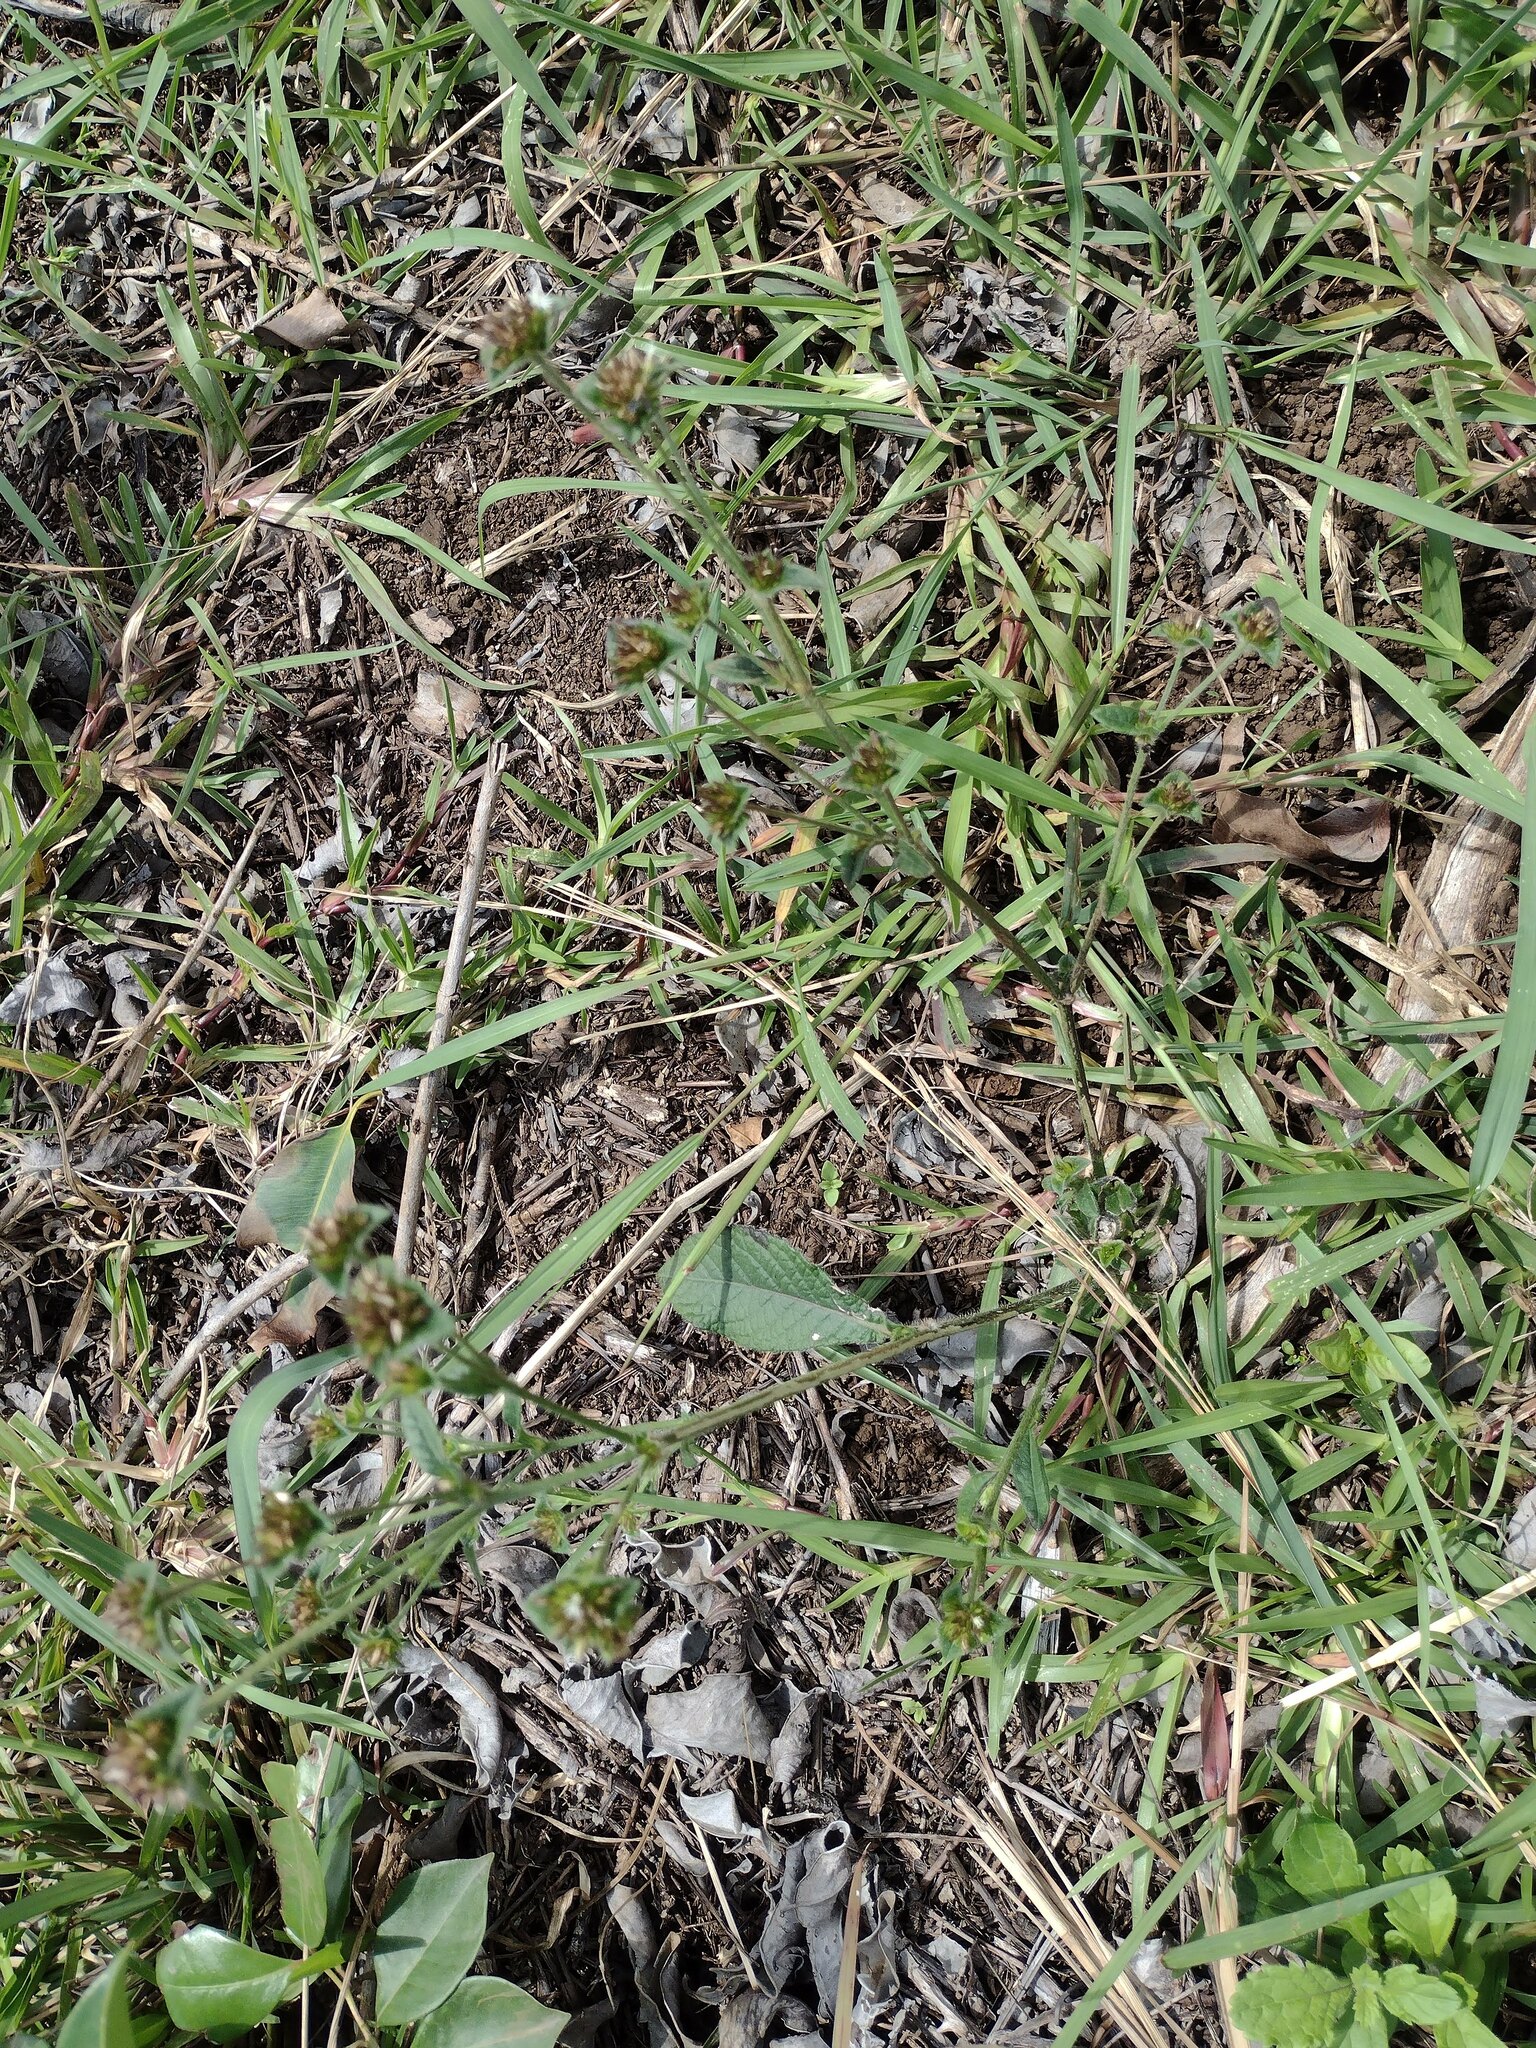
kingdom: Plantae
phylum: Tracheophyta
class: Magnoliopsida
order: Asterales
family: Asteraceae
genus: Elephantopus
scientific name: Elephantopus mollis
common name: Soft elephantsfoot
